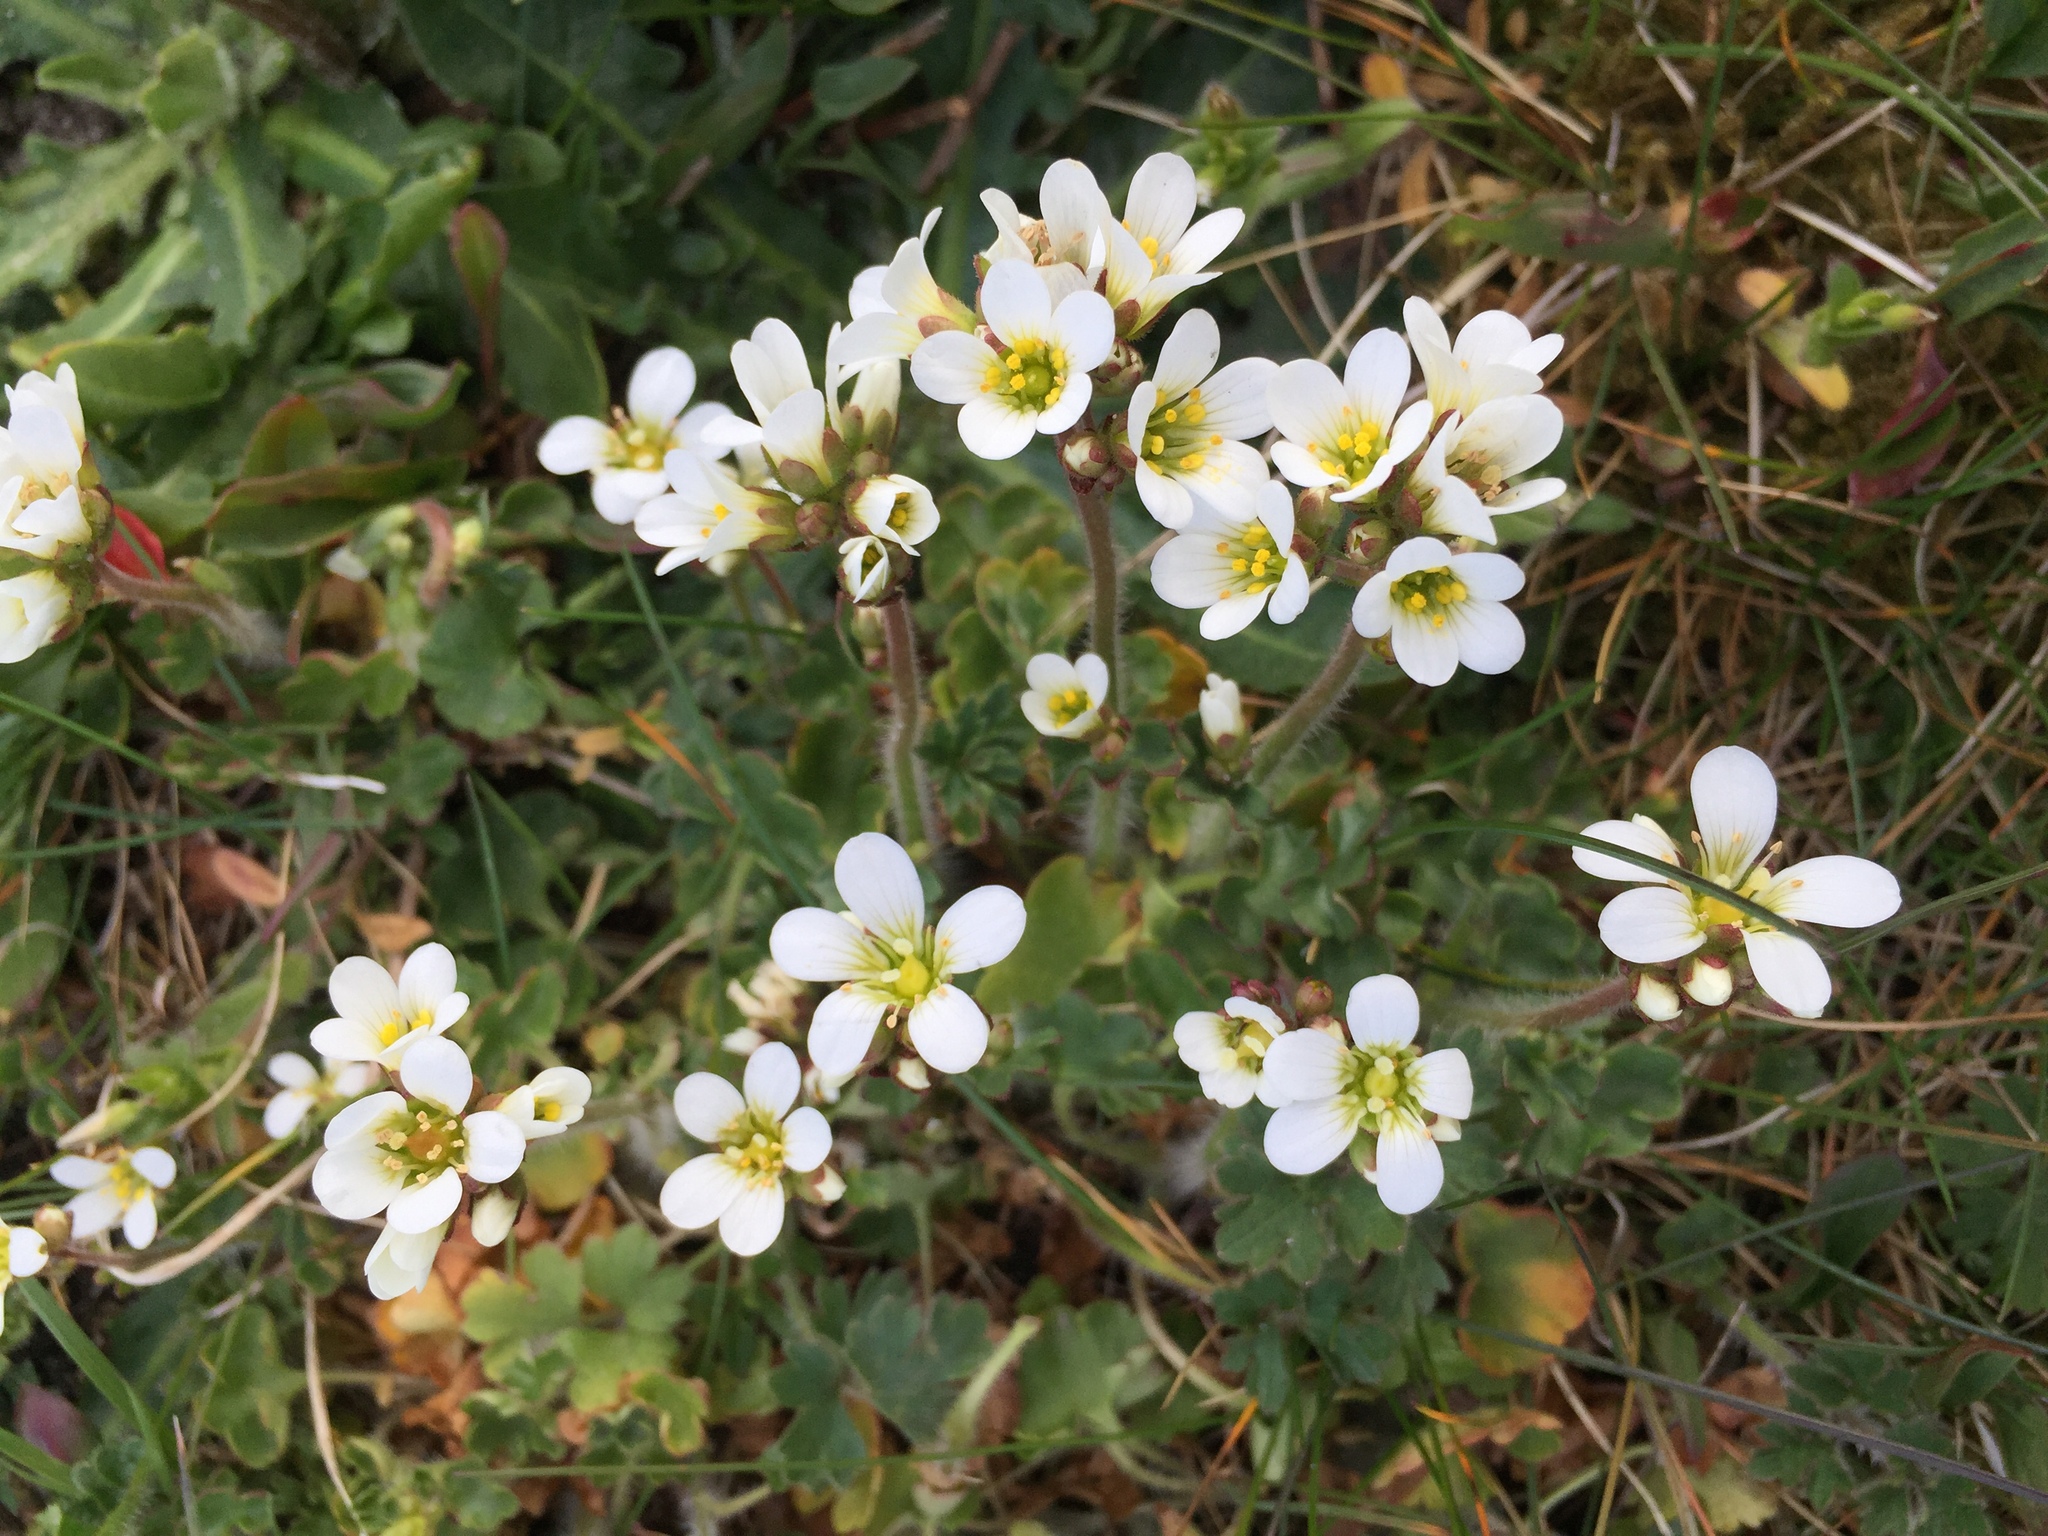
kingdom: Plantae
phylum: Tracheophyta
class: Magnoliopsida
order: Saxifragales
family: Saxifragaceae
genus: Saxifraga
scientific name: Saxifraga granulata
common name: Meadow saxifrage
